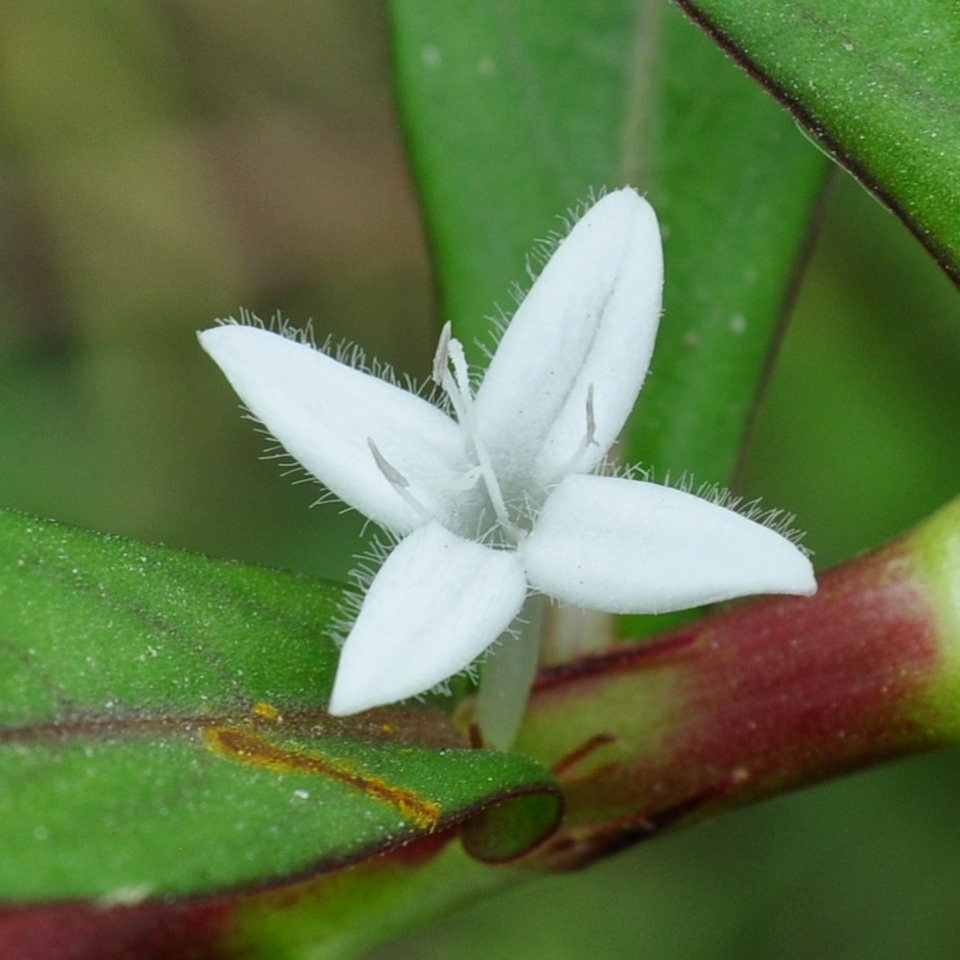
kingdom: Plantae
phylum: Tracheophyta
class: Magnoliopsida
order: Gentianales
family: Rubiaceae
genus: Diodia
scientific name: Diodia saponariifolia
